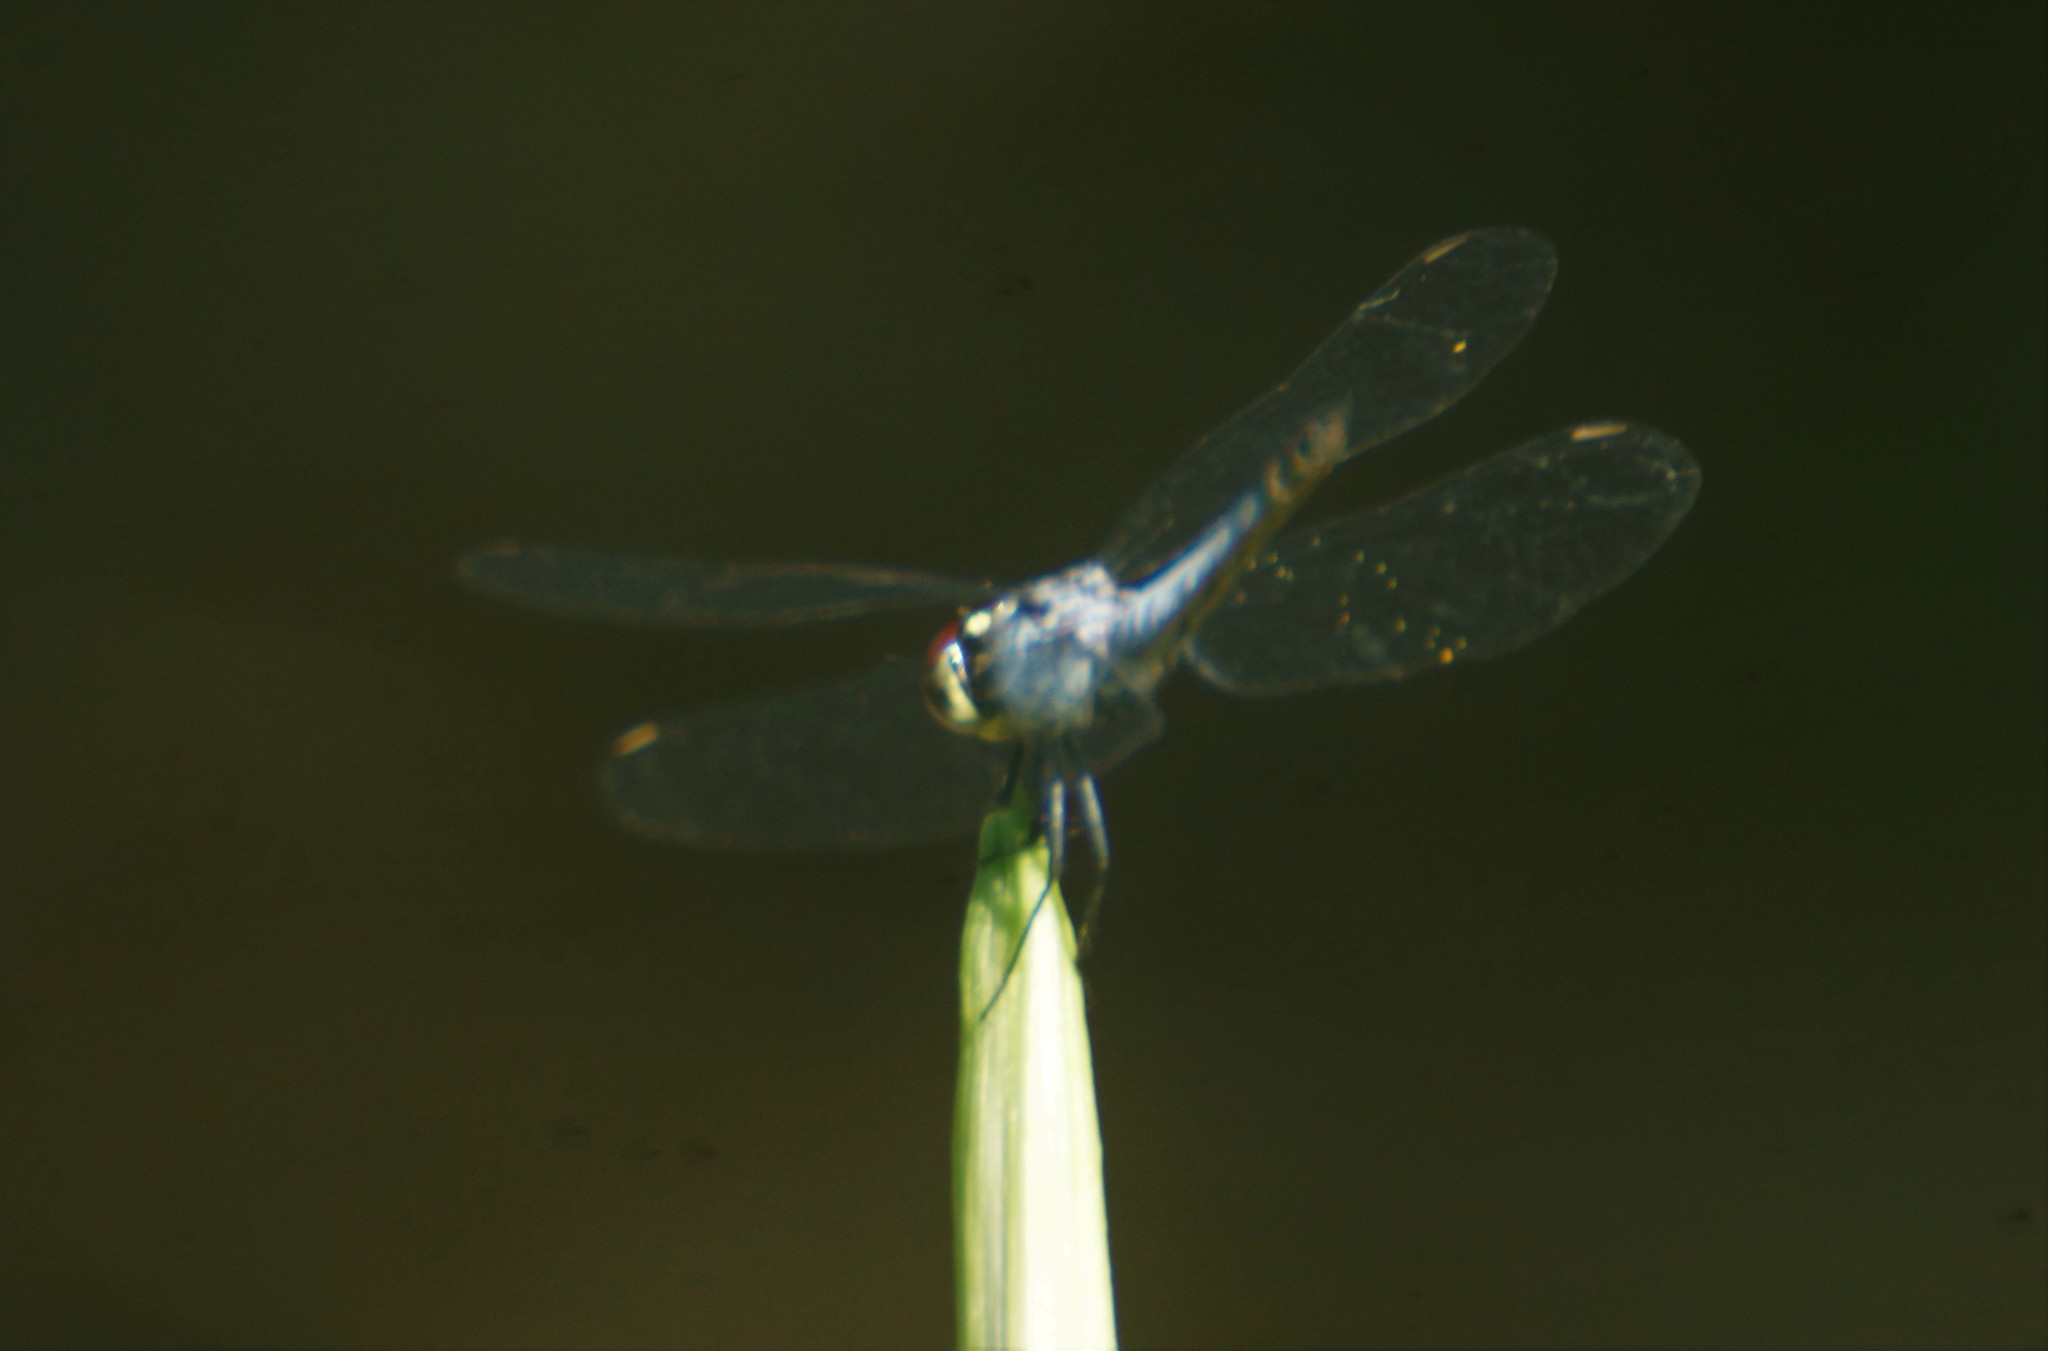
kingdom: Animalia
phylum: Arthropoda
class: Insecta
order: Odonata
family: Libellulidae
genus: Brachydiplax
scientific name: Brachydiplax denticauda
